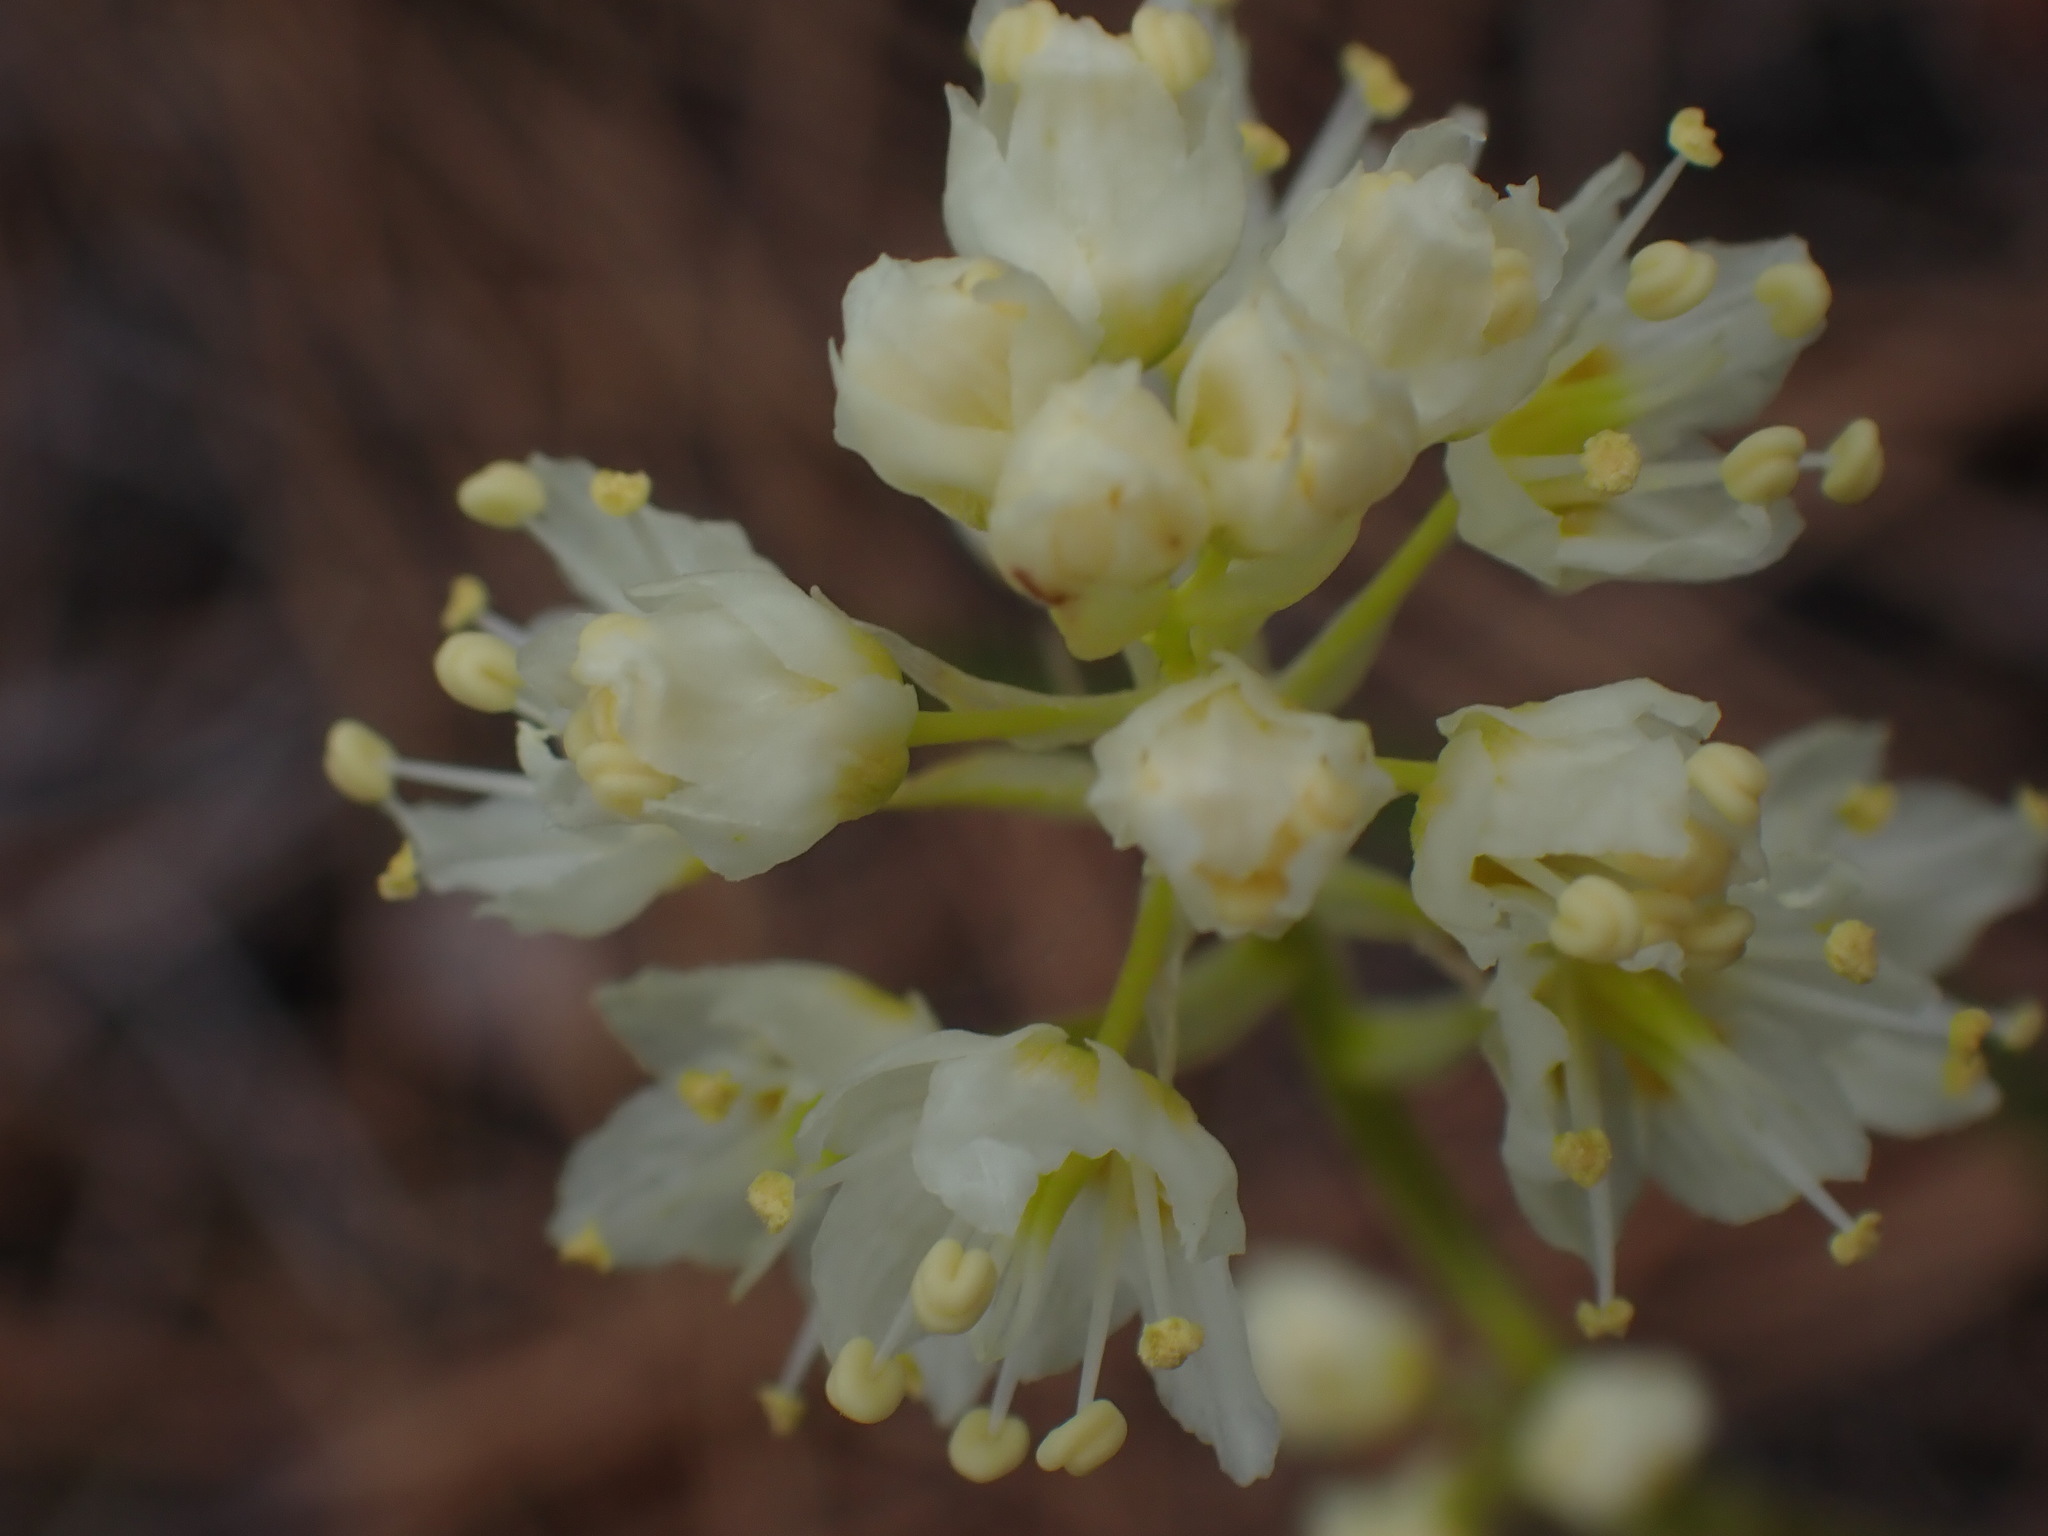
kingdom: Plantae
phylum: Tracheophyta
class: Liliopsida
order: Liliales
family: Melanthiaceae
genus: Toxicoscordion
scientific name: Toxicoscordion venenosum
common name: Meadow death camas
